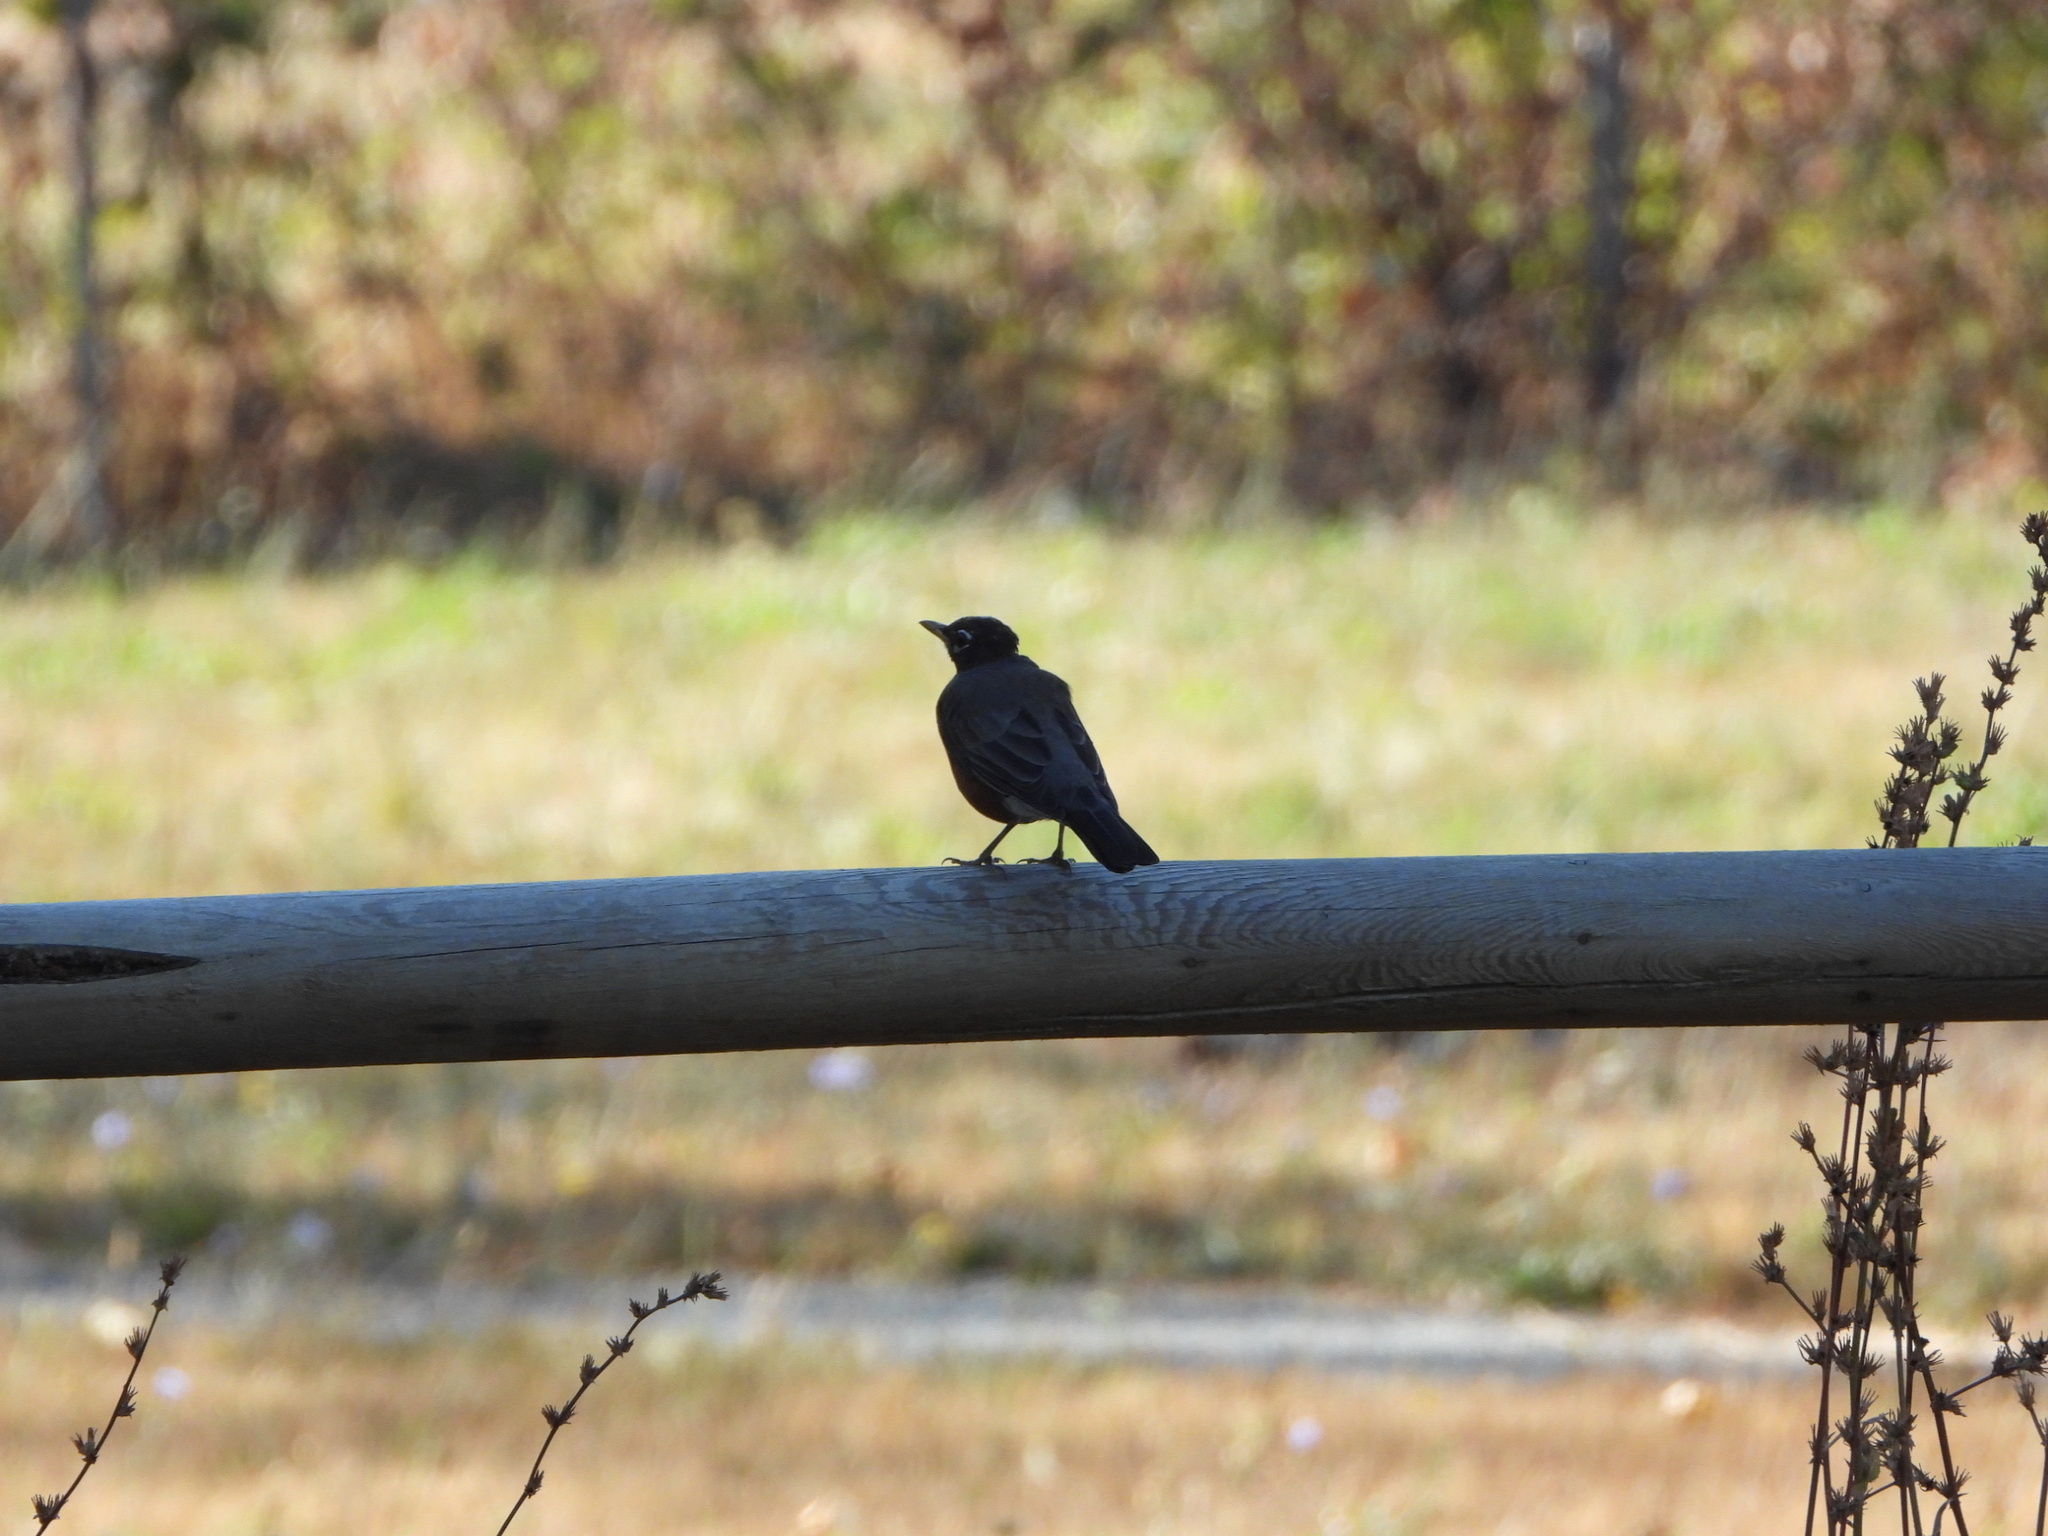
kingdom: Animalia
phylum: Chordata
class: Aves
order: Passeriformes
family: Turdidae
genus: Turdus
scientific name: Turdus migratorius
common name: American robin
